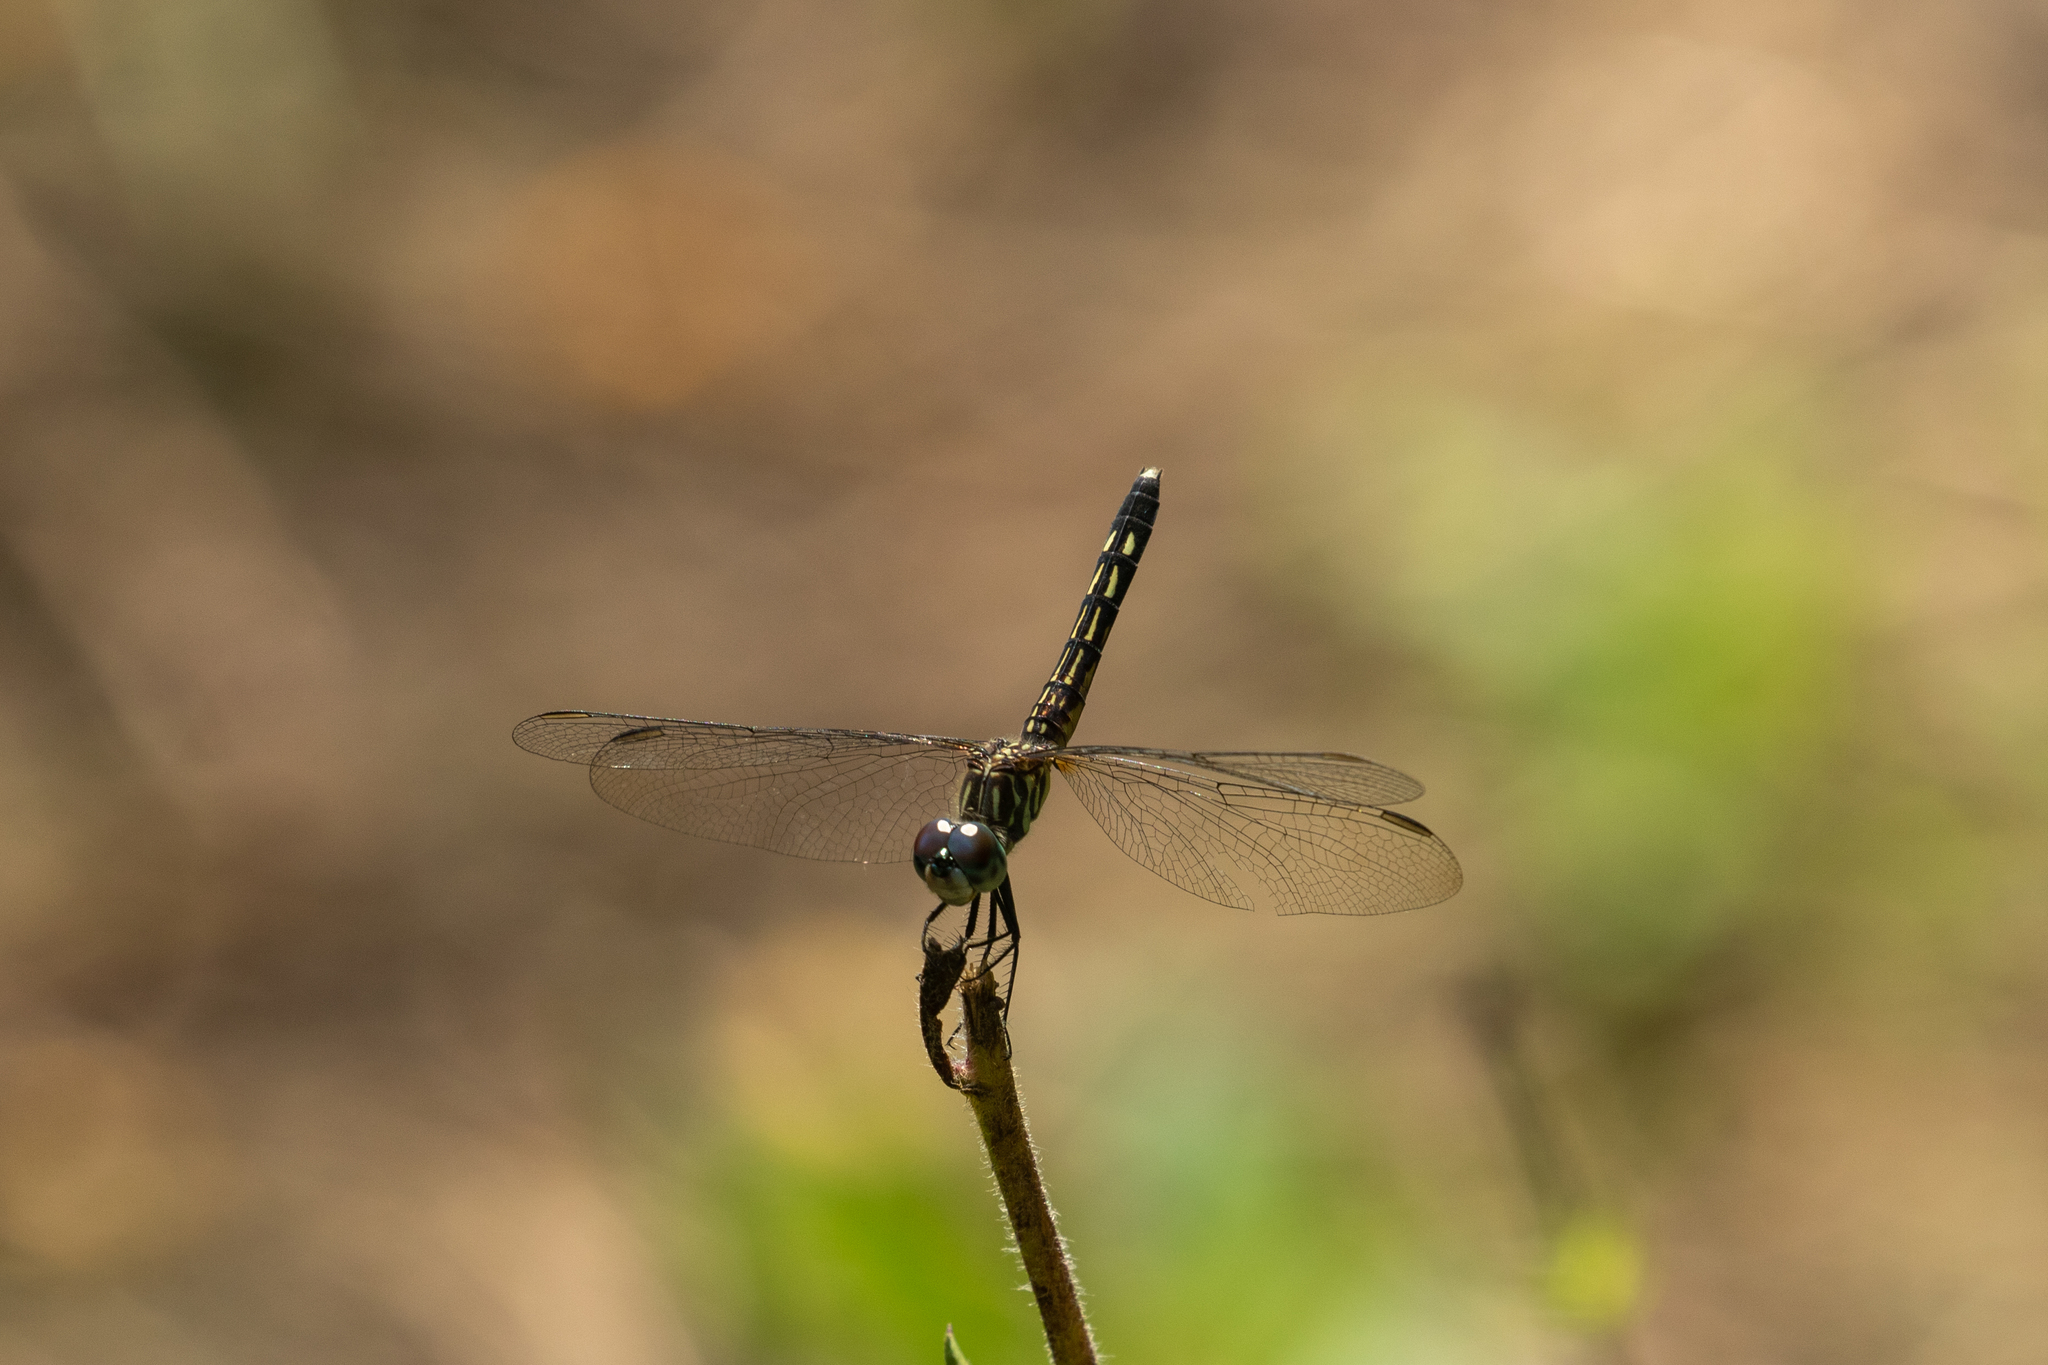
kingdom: Animalia
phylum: Arthropoda
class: Insecta
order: Odonata
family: Libellulidae
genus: Pachydiplax
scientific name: Pachydiplax longipennis
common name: Blue dasher
